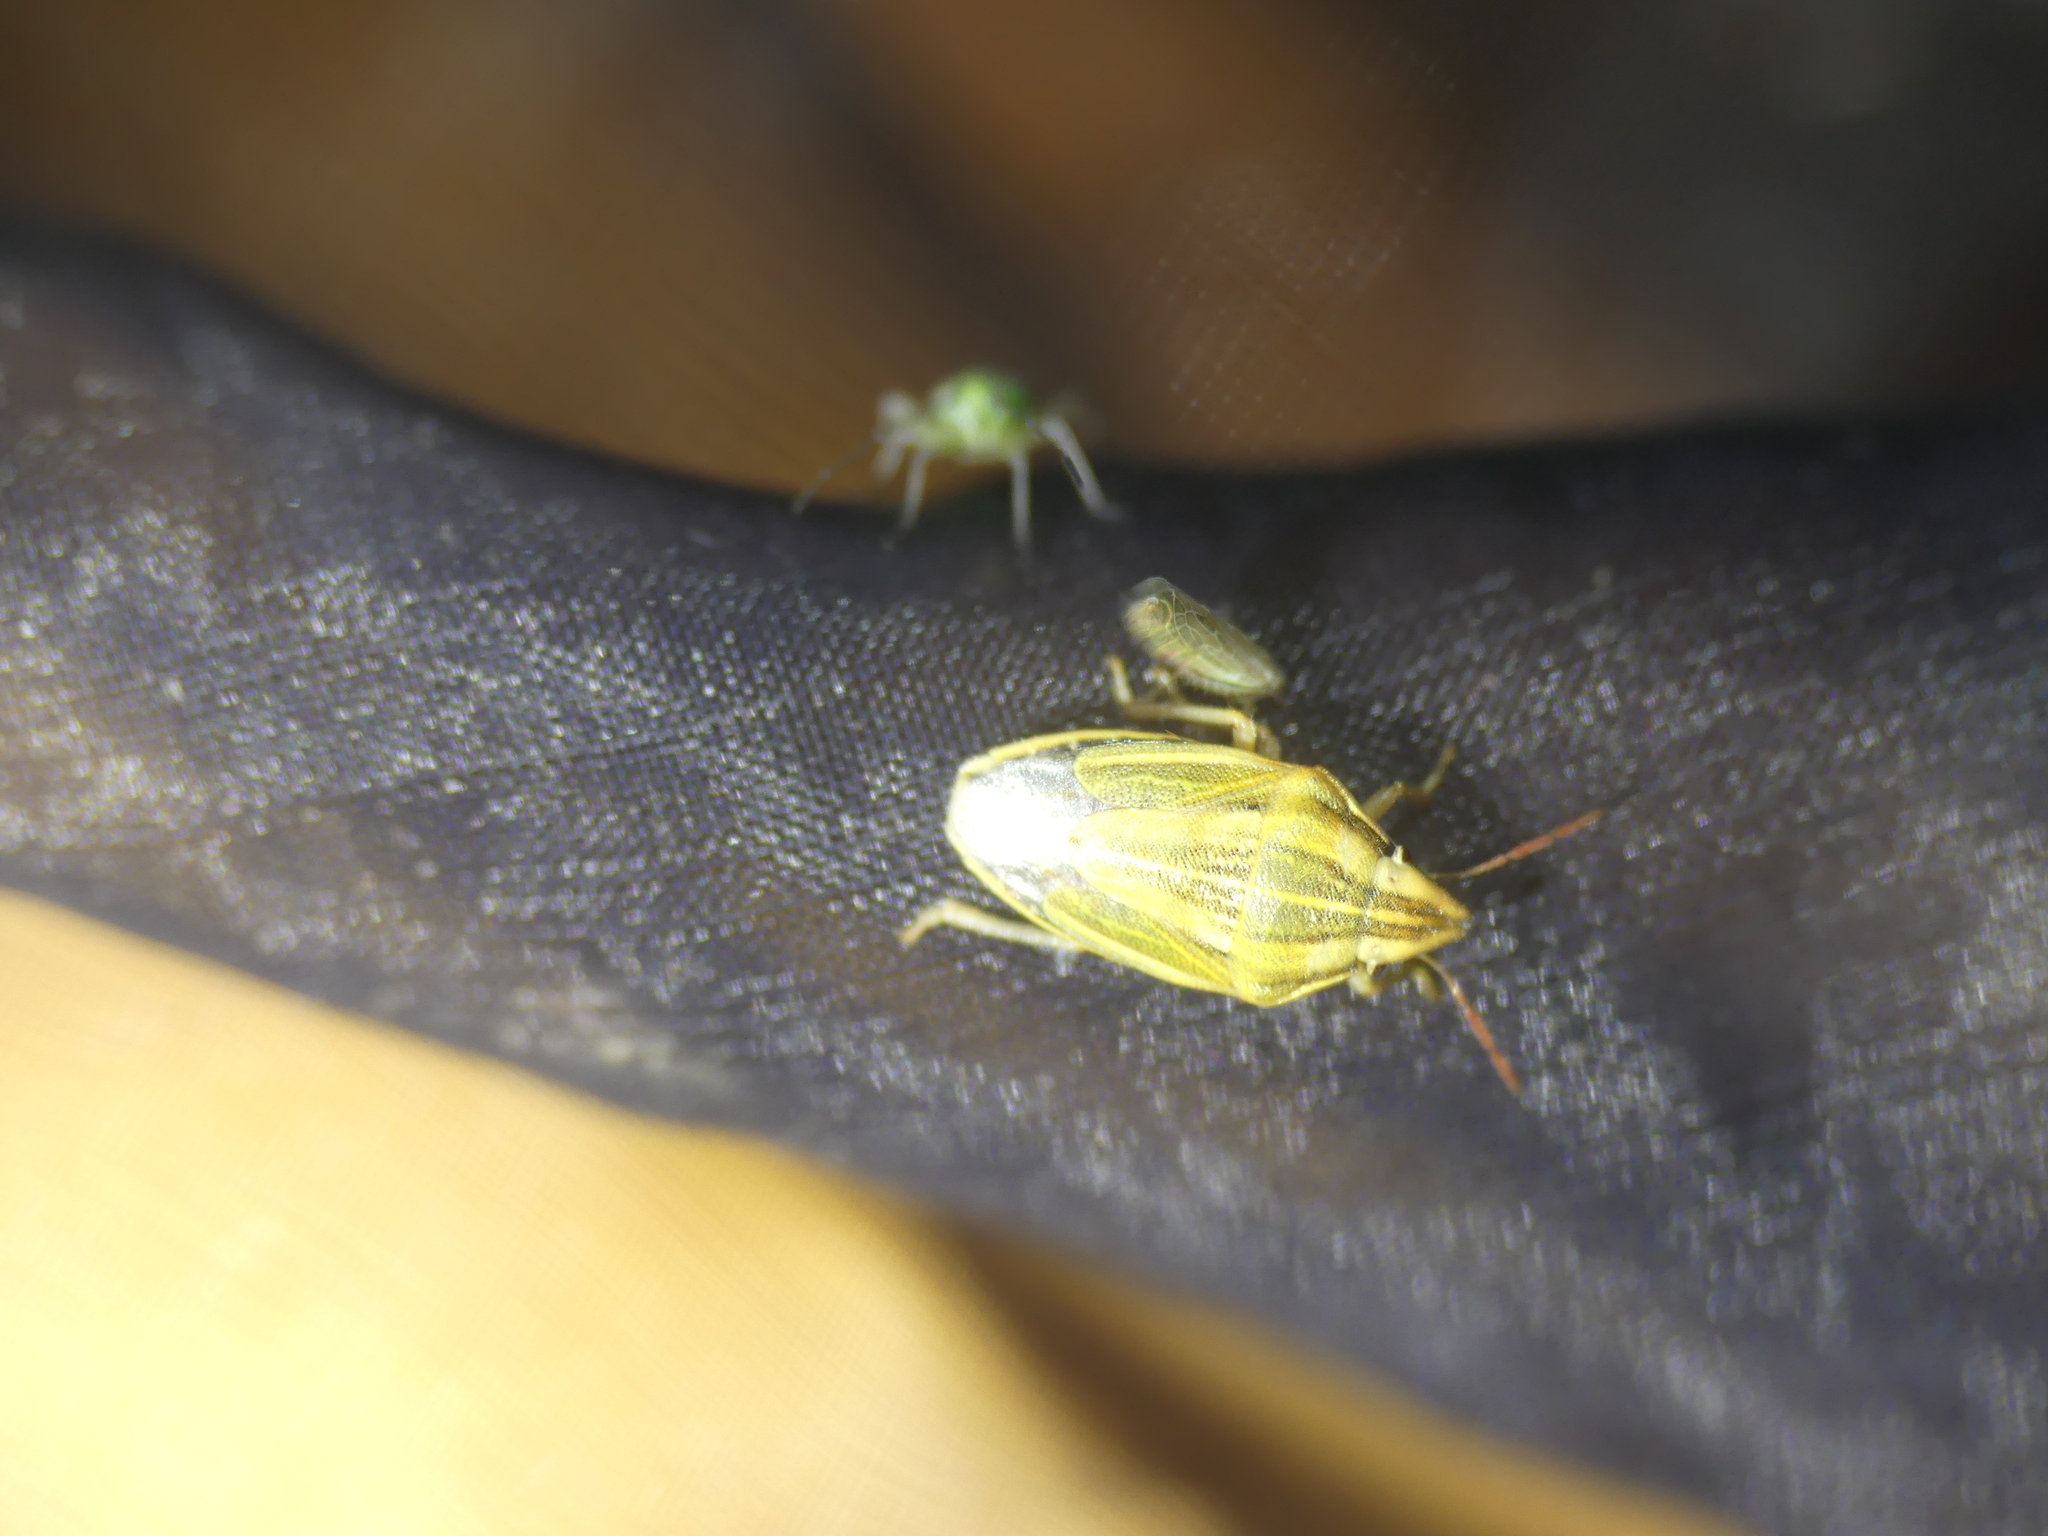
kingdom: Animalia
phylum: Arthropoda
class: Insecta
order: Hemiptera
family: Pentatomidae
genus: Aelia
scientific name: Aelia acuminata
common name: Bishop's mitre
